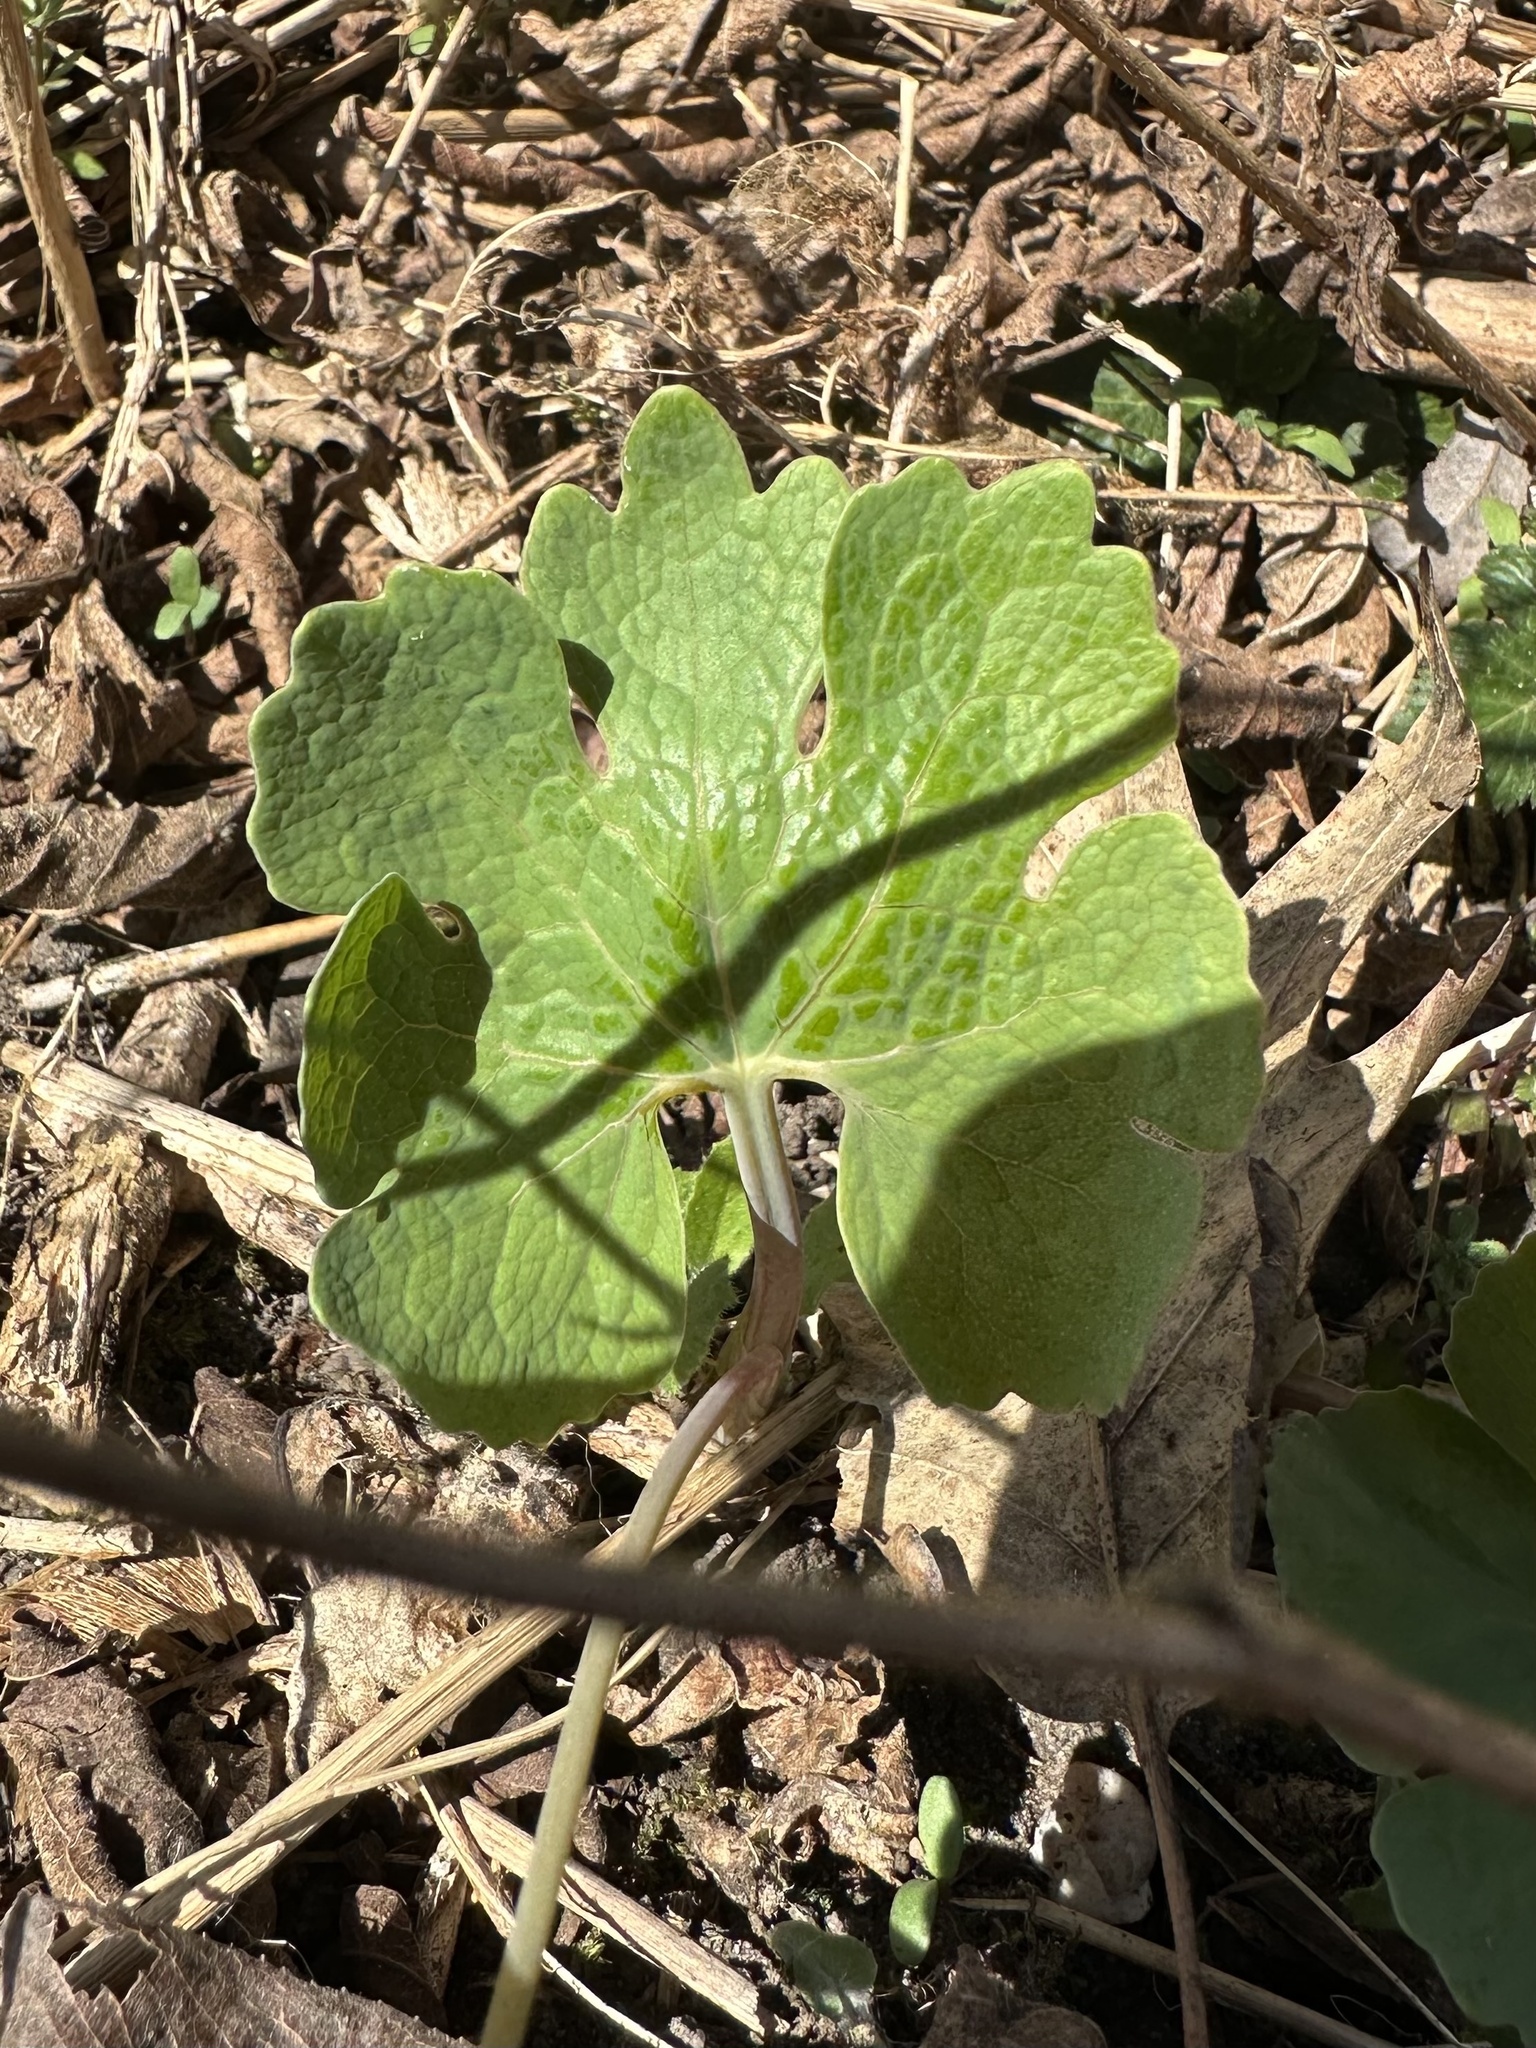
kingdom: Plantae
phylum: Tracheophyta
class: Magnoliopsida
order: Ranunculales
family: Papaveraceae
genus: Sanguinaria
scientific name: Sanguinaria canadensis
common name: Bloodroot
